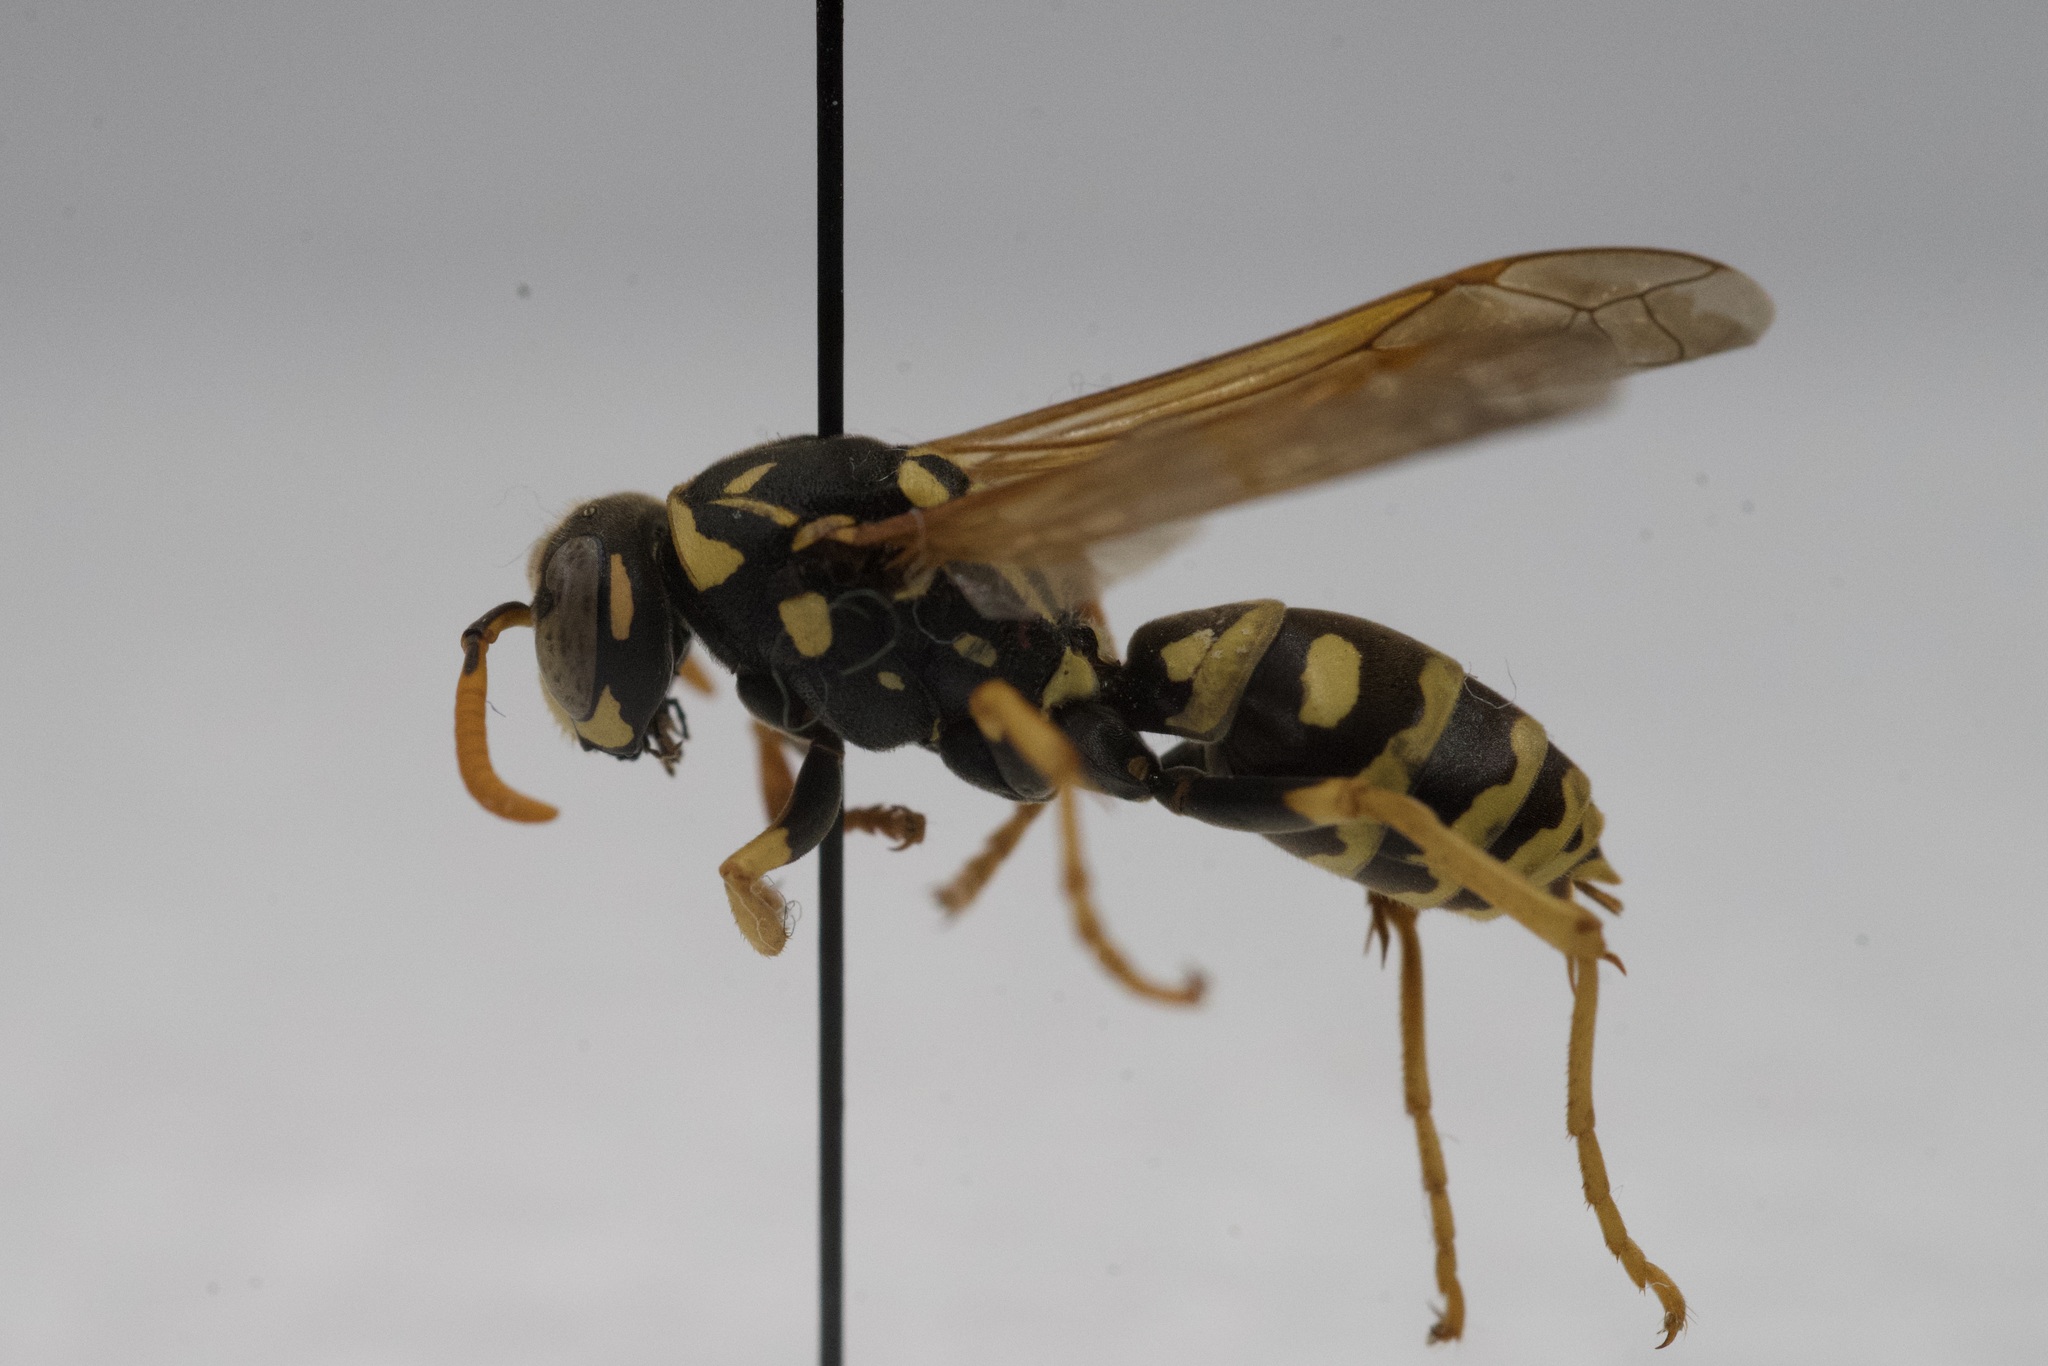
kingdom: Animalia
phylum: Arthropoda
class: Insecta
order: Hymenoptera
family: Eumenidae
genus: Polistes
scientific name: Polistes dominula
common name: Paper wasp
